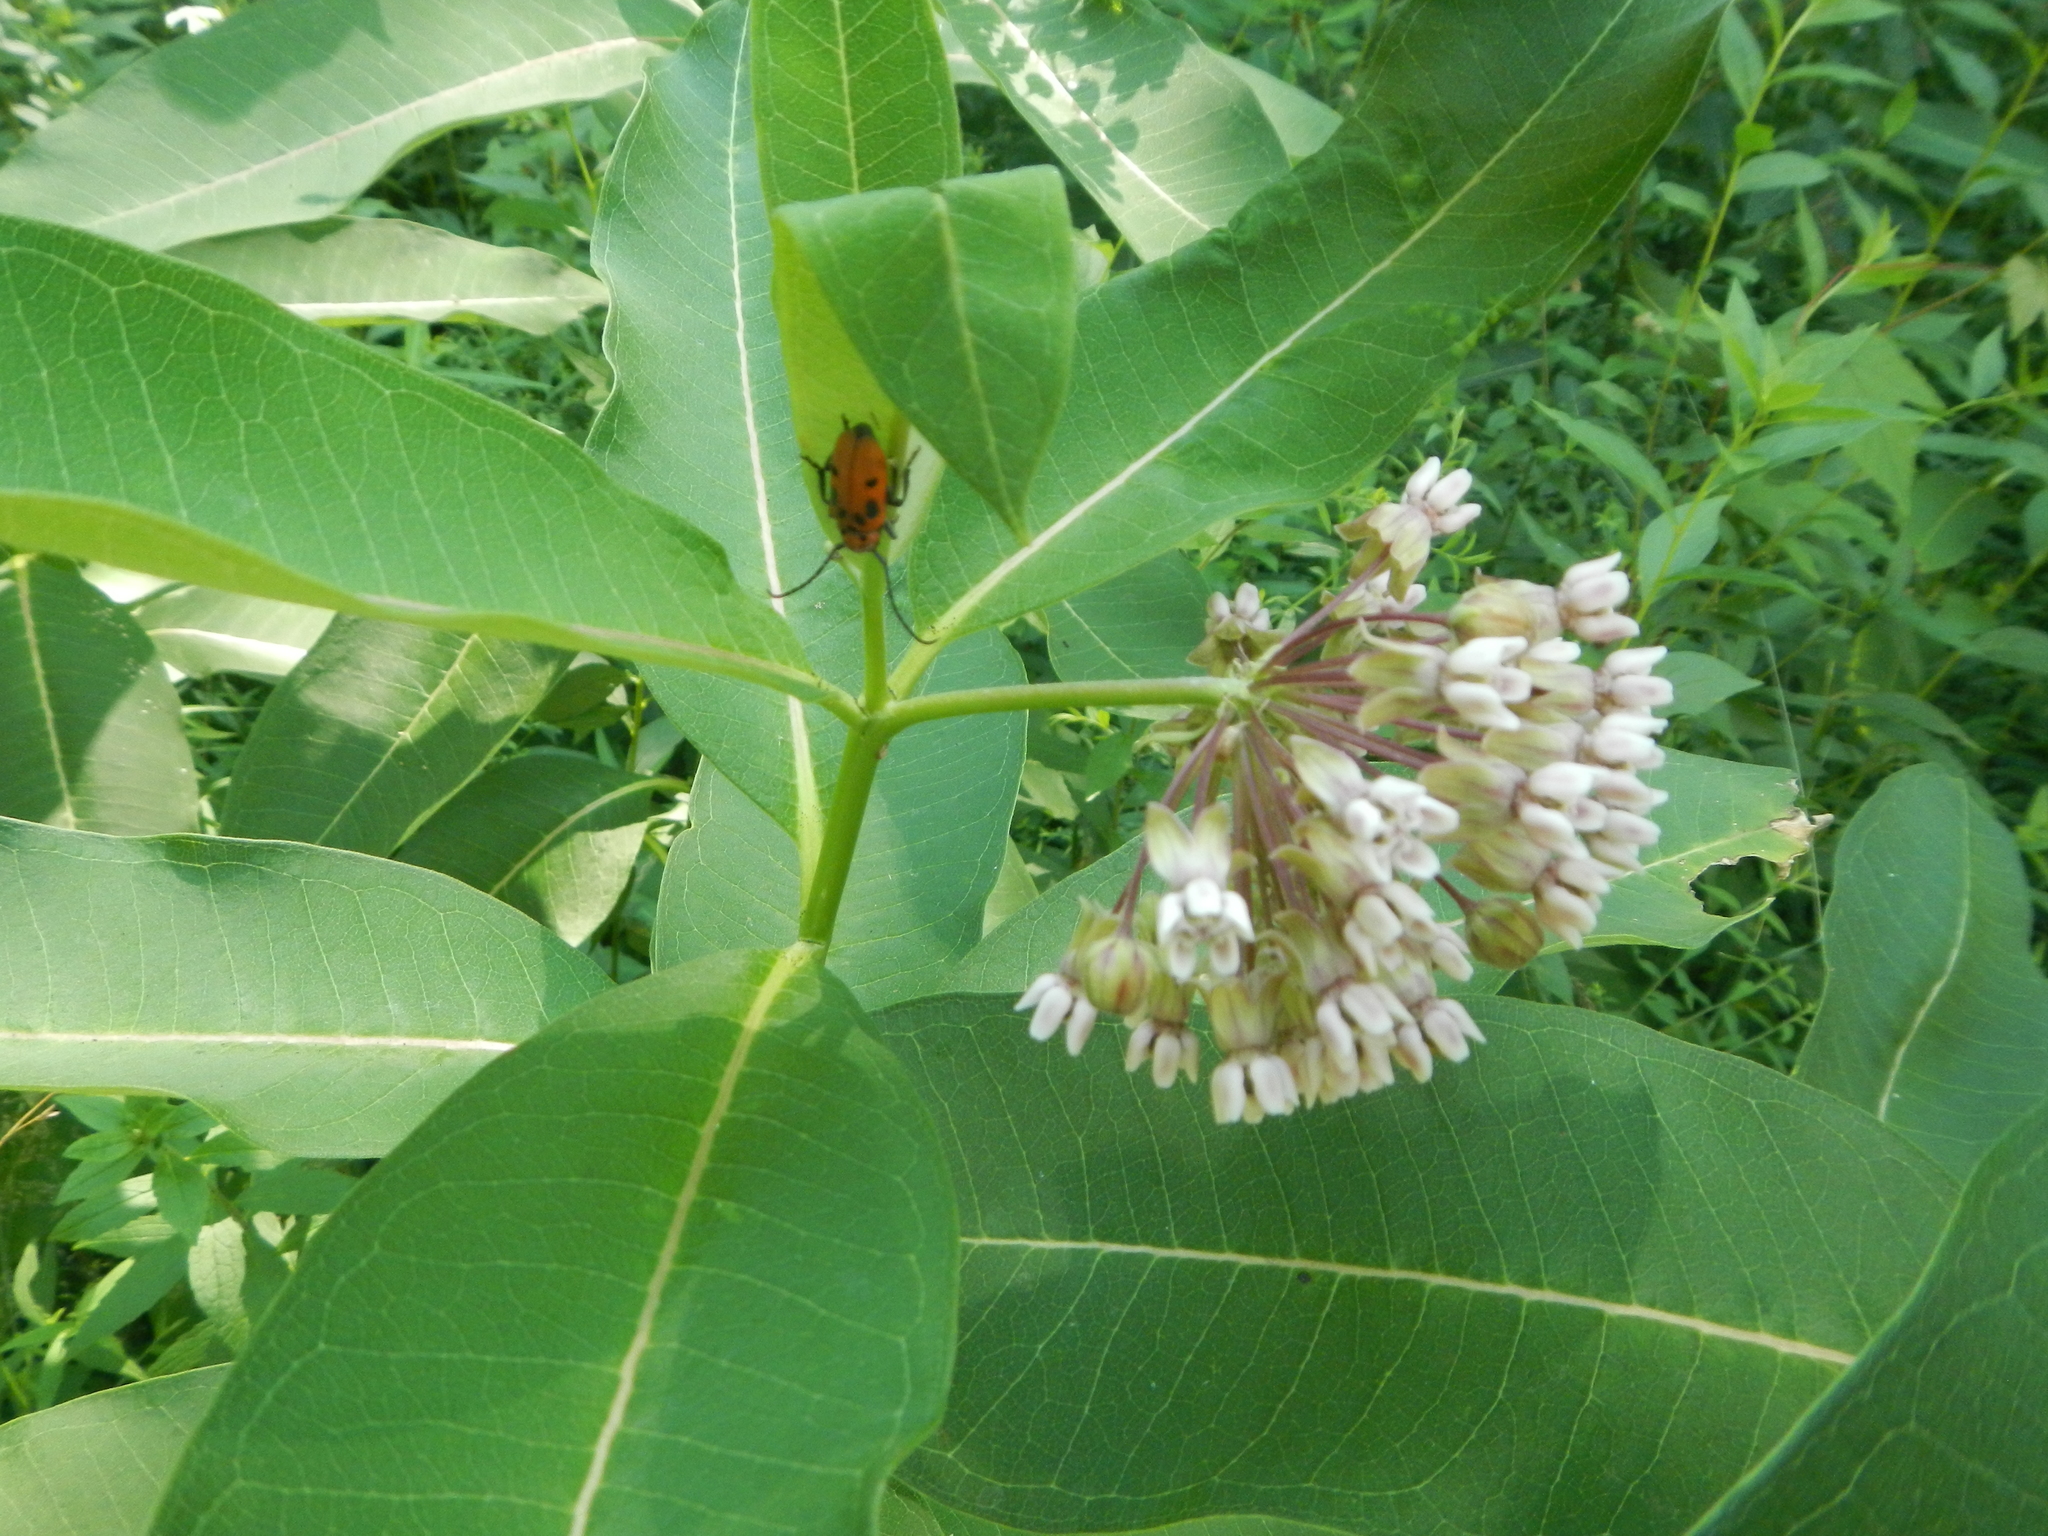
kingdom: Animalia
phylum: Arthropoda
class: Insecta
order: Coleoptera
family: Cerambycidae
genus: Tetraopes
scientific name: Tetraopes tetrophthalmus
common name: Red milkweed beetle
